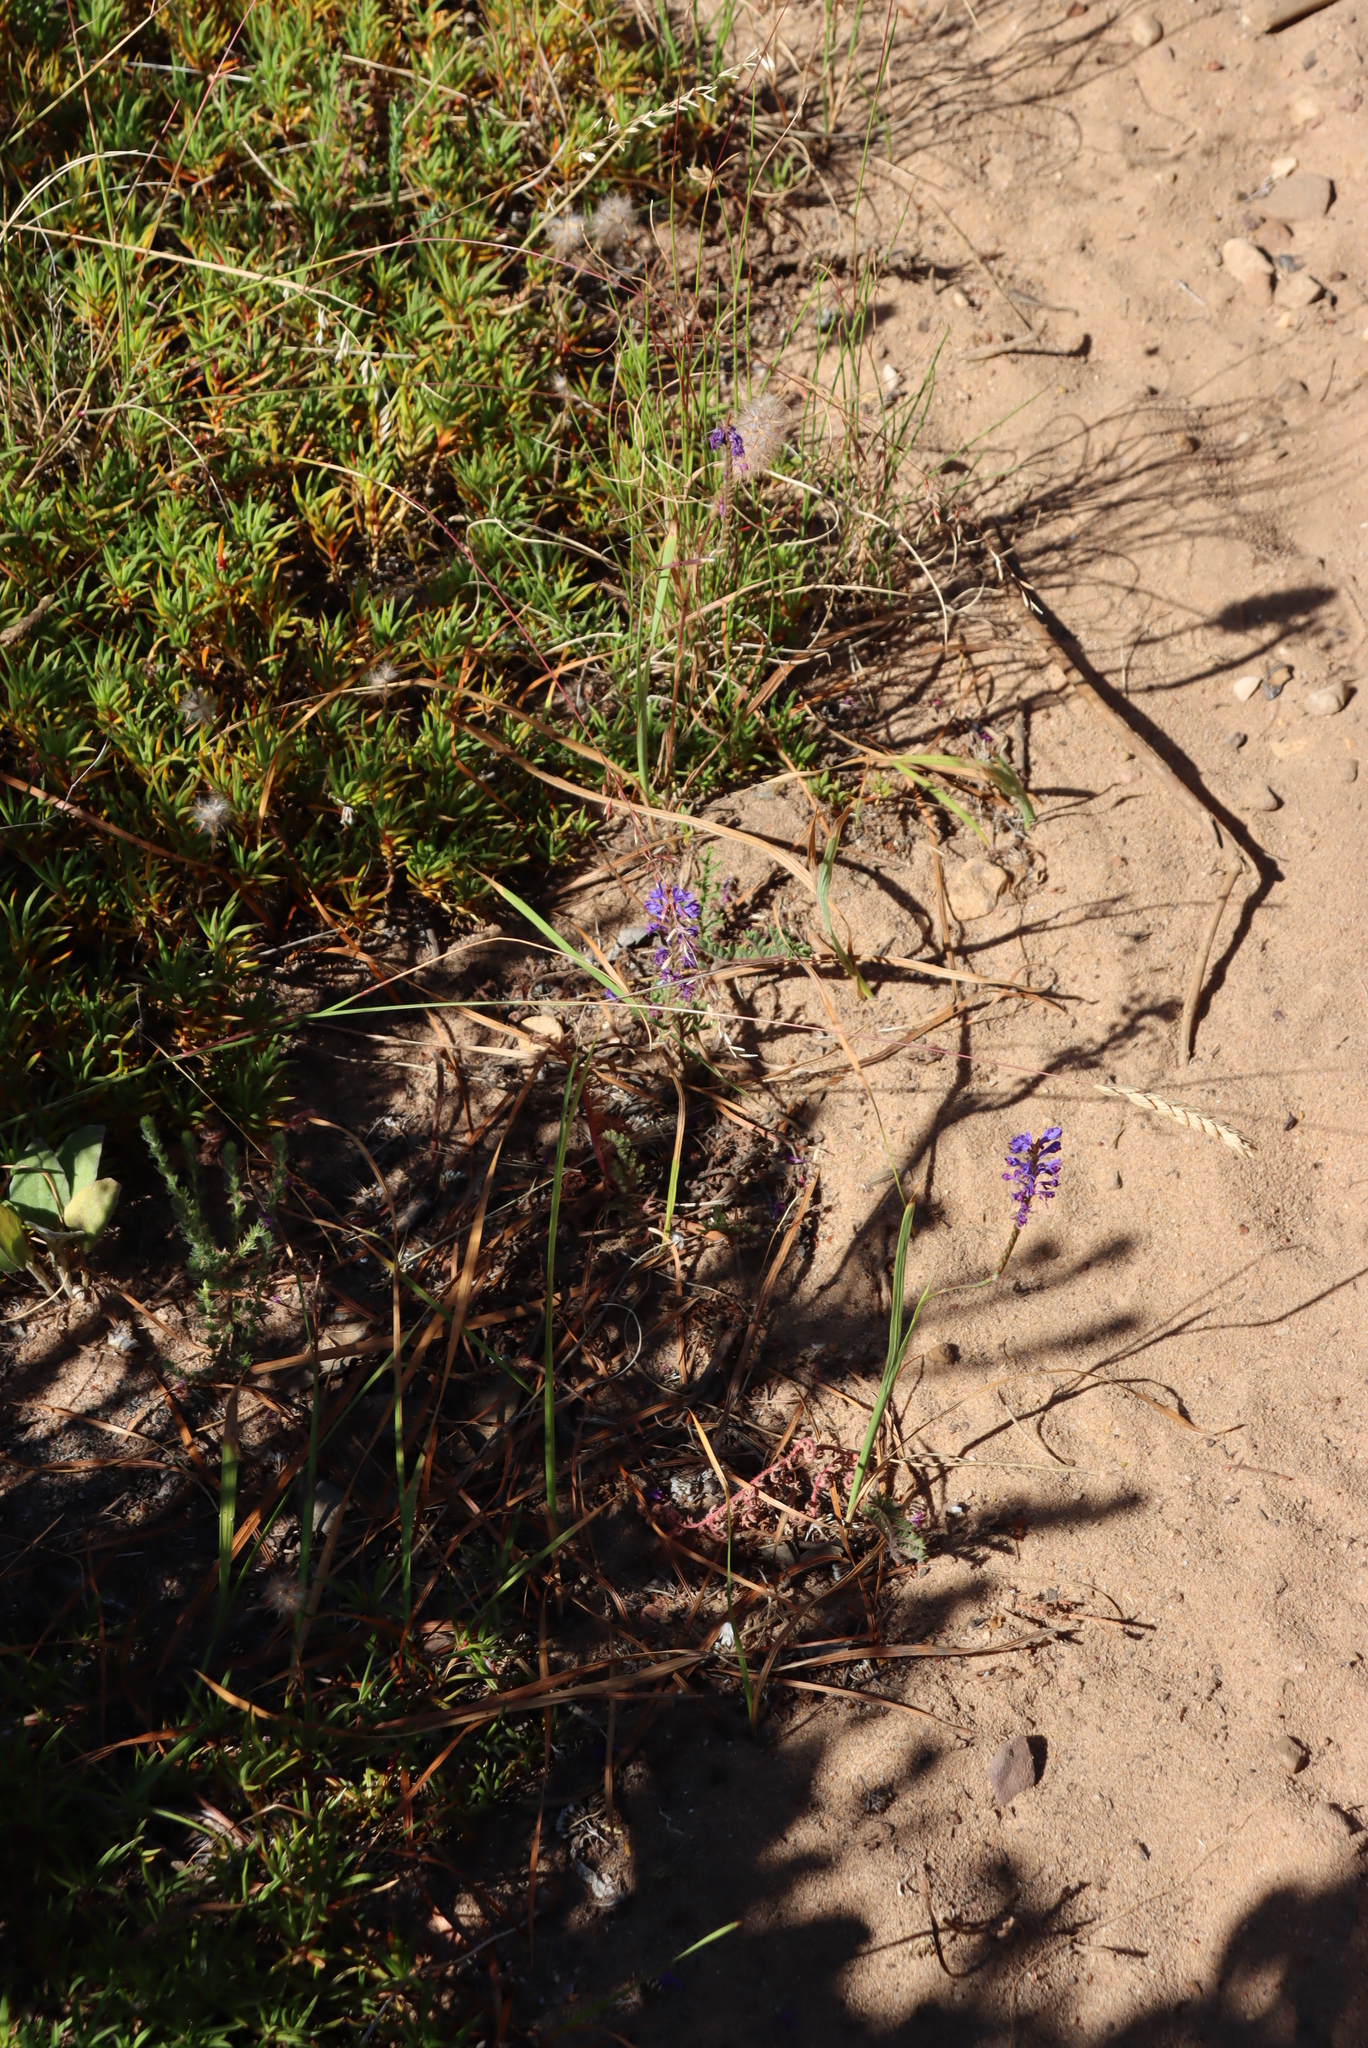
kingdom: Plantae
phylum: Tracheophyta
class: Liliopsida
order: Asparagales
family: Iridaceae
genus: Micranthus
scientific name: Micranthus alopecuroides
